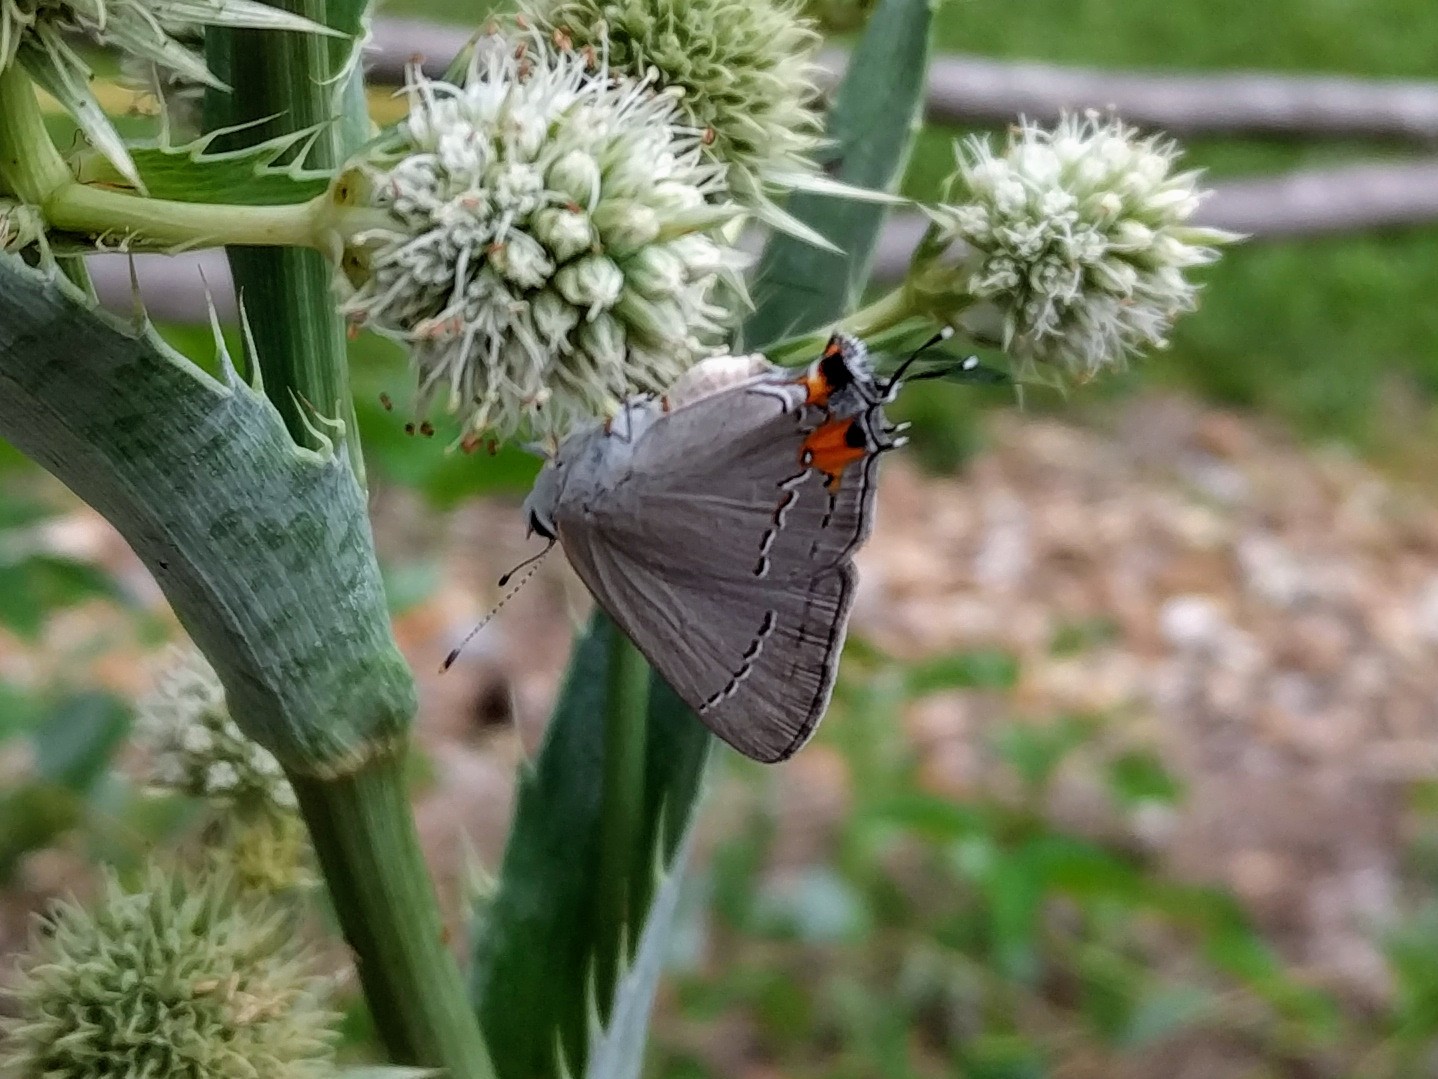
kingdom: Animalia
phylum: Arthropoda
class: Insecta
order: Lepidoptera
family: Lycaenidae
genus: Strymon
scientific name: Strymon melinus
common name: Gray hairstreak
